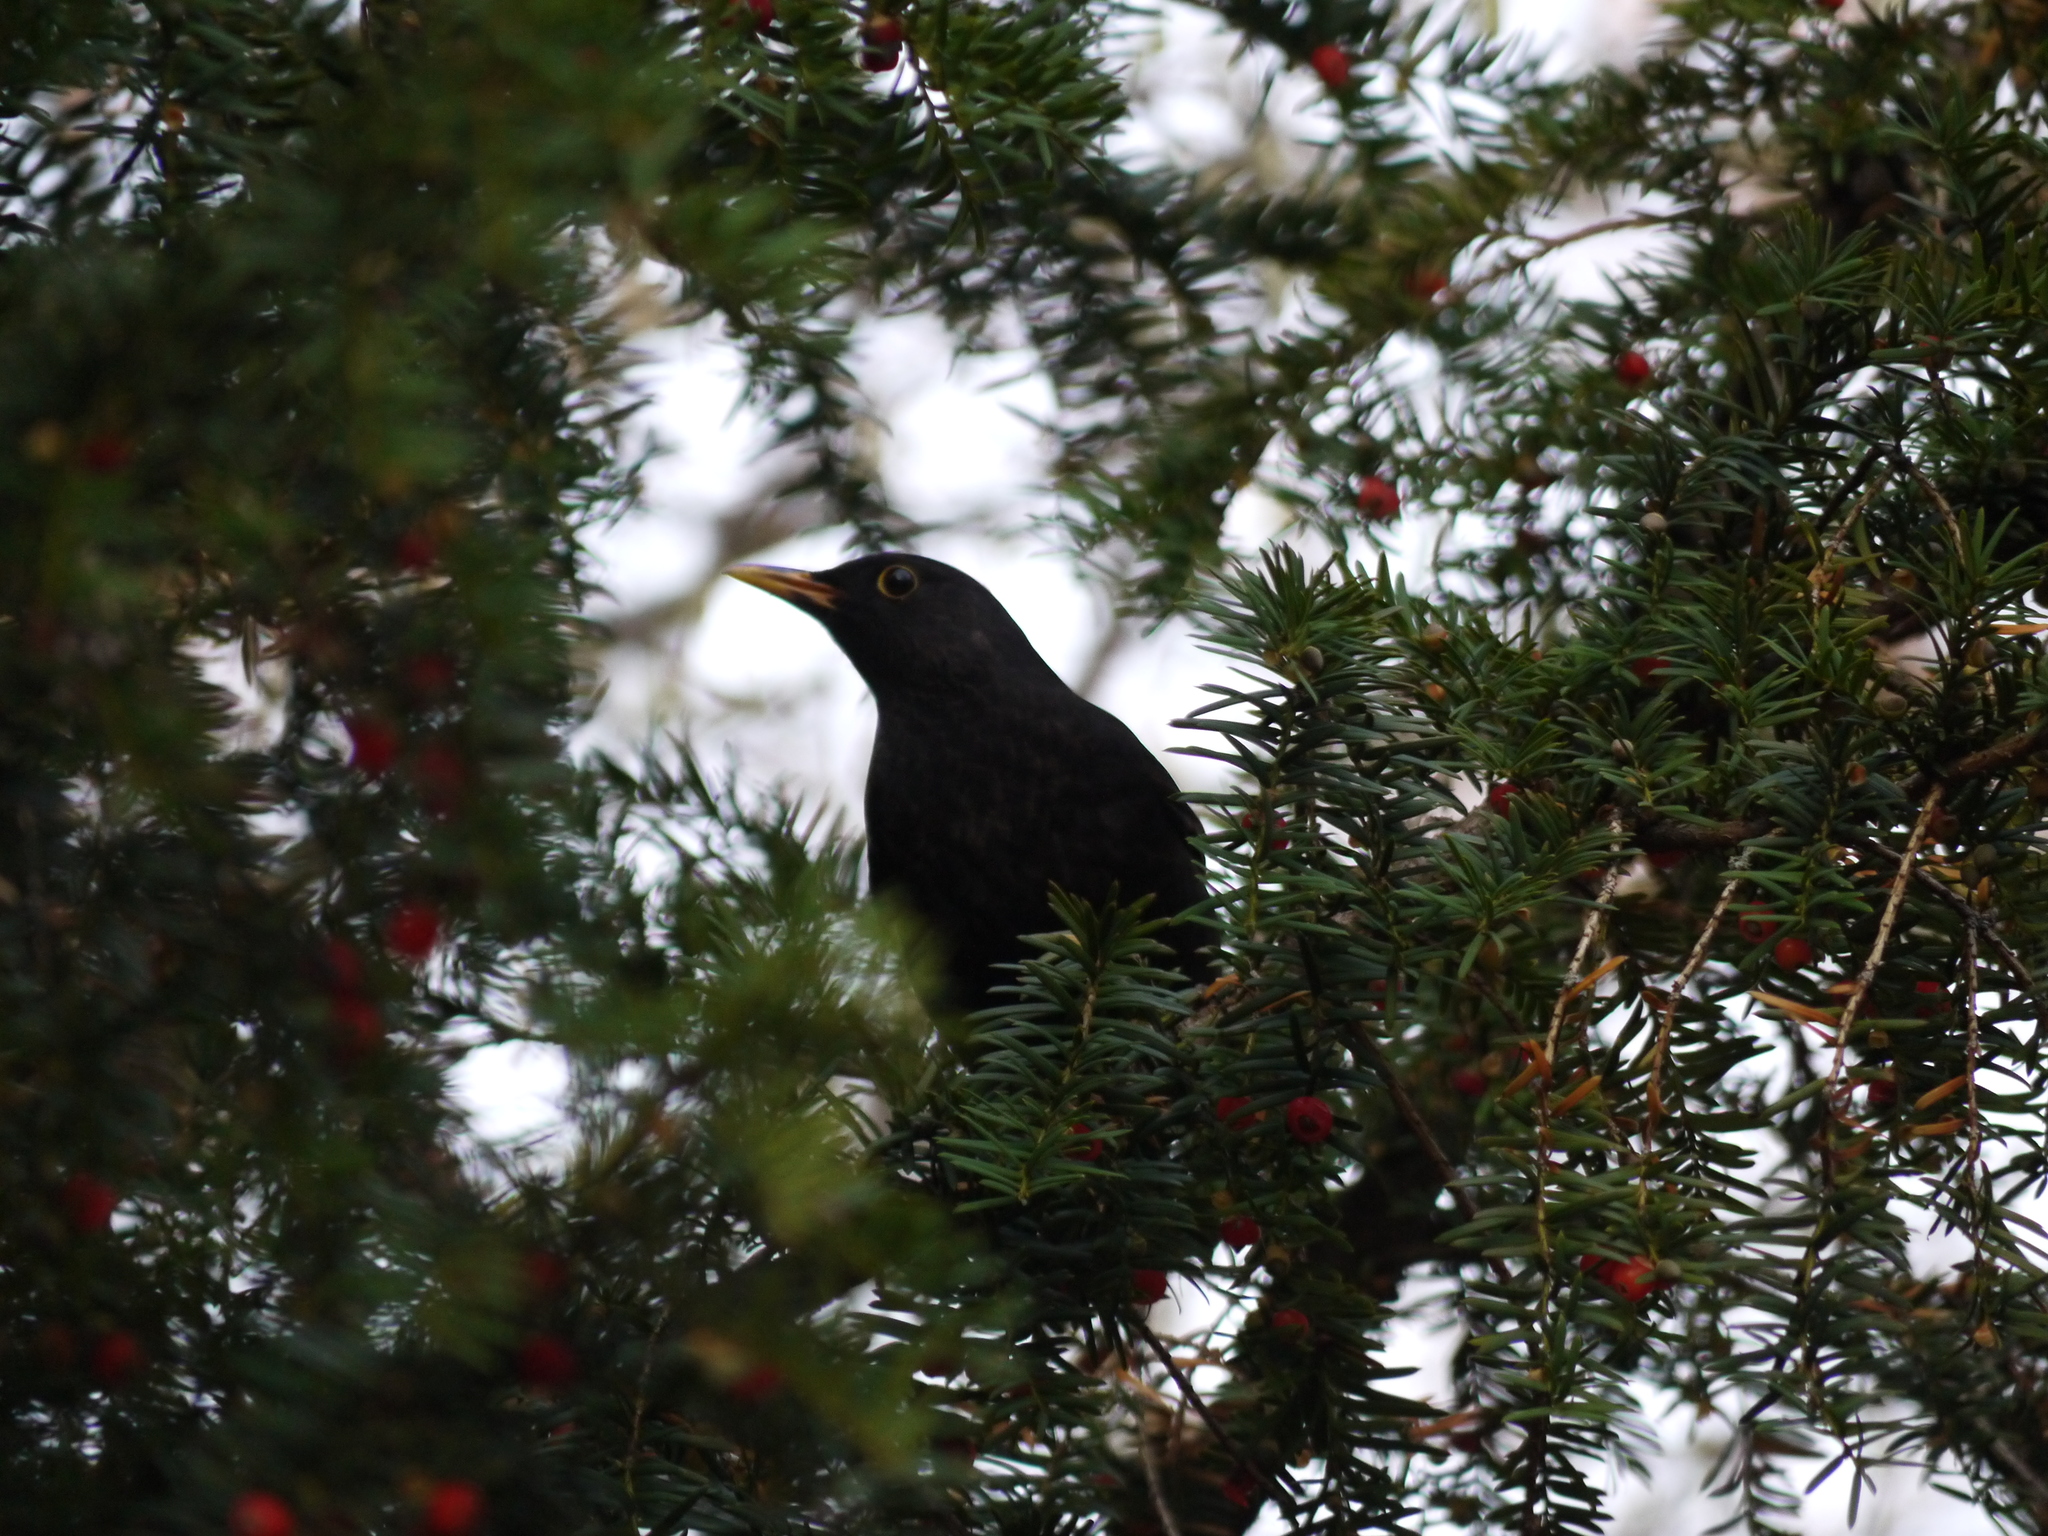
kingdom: Animalia
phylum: Chordata
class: Aves
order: Passeriformes
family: Turdidae
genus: Turdus
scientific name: Turdus merula
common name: Common blackbird
